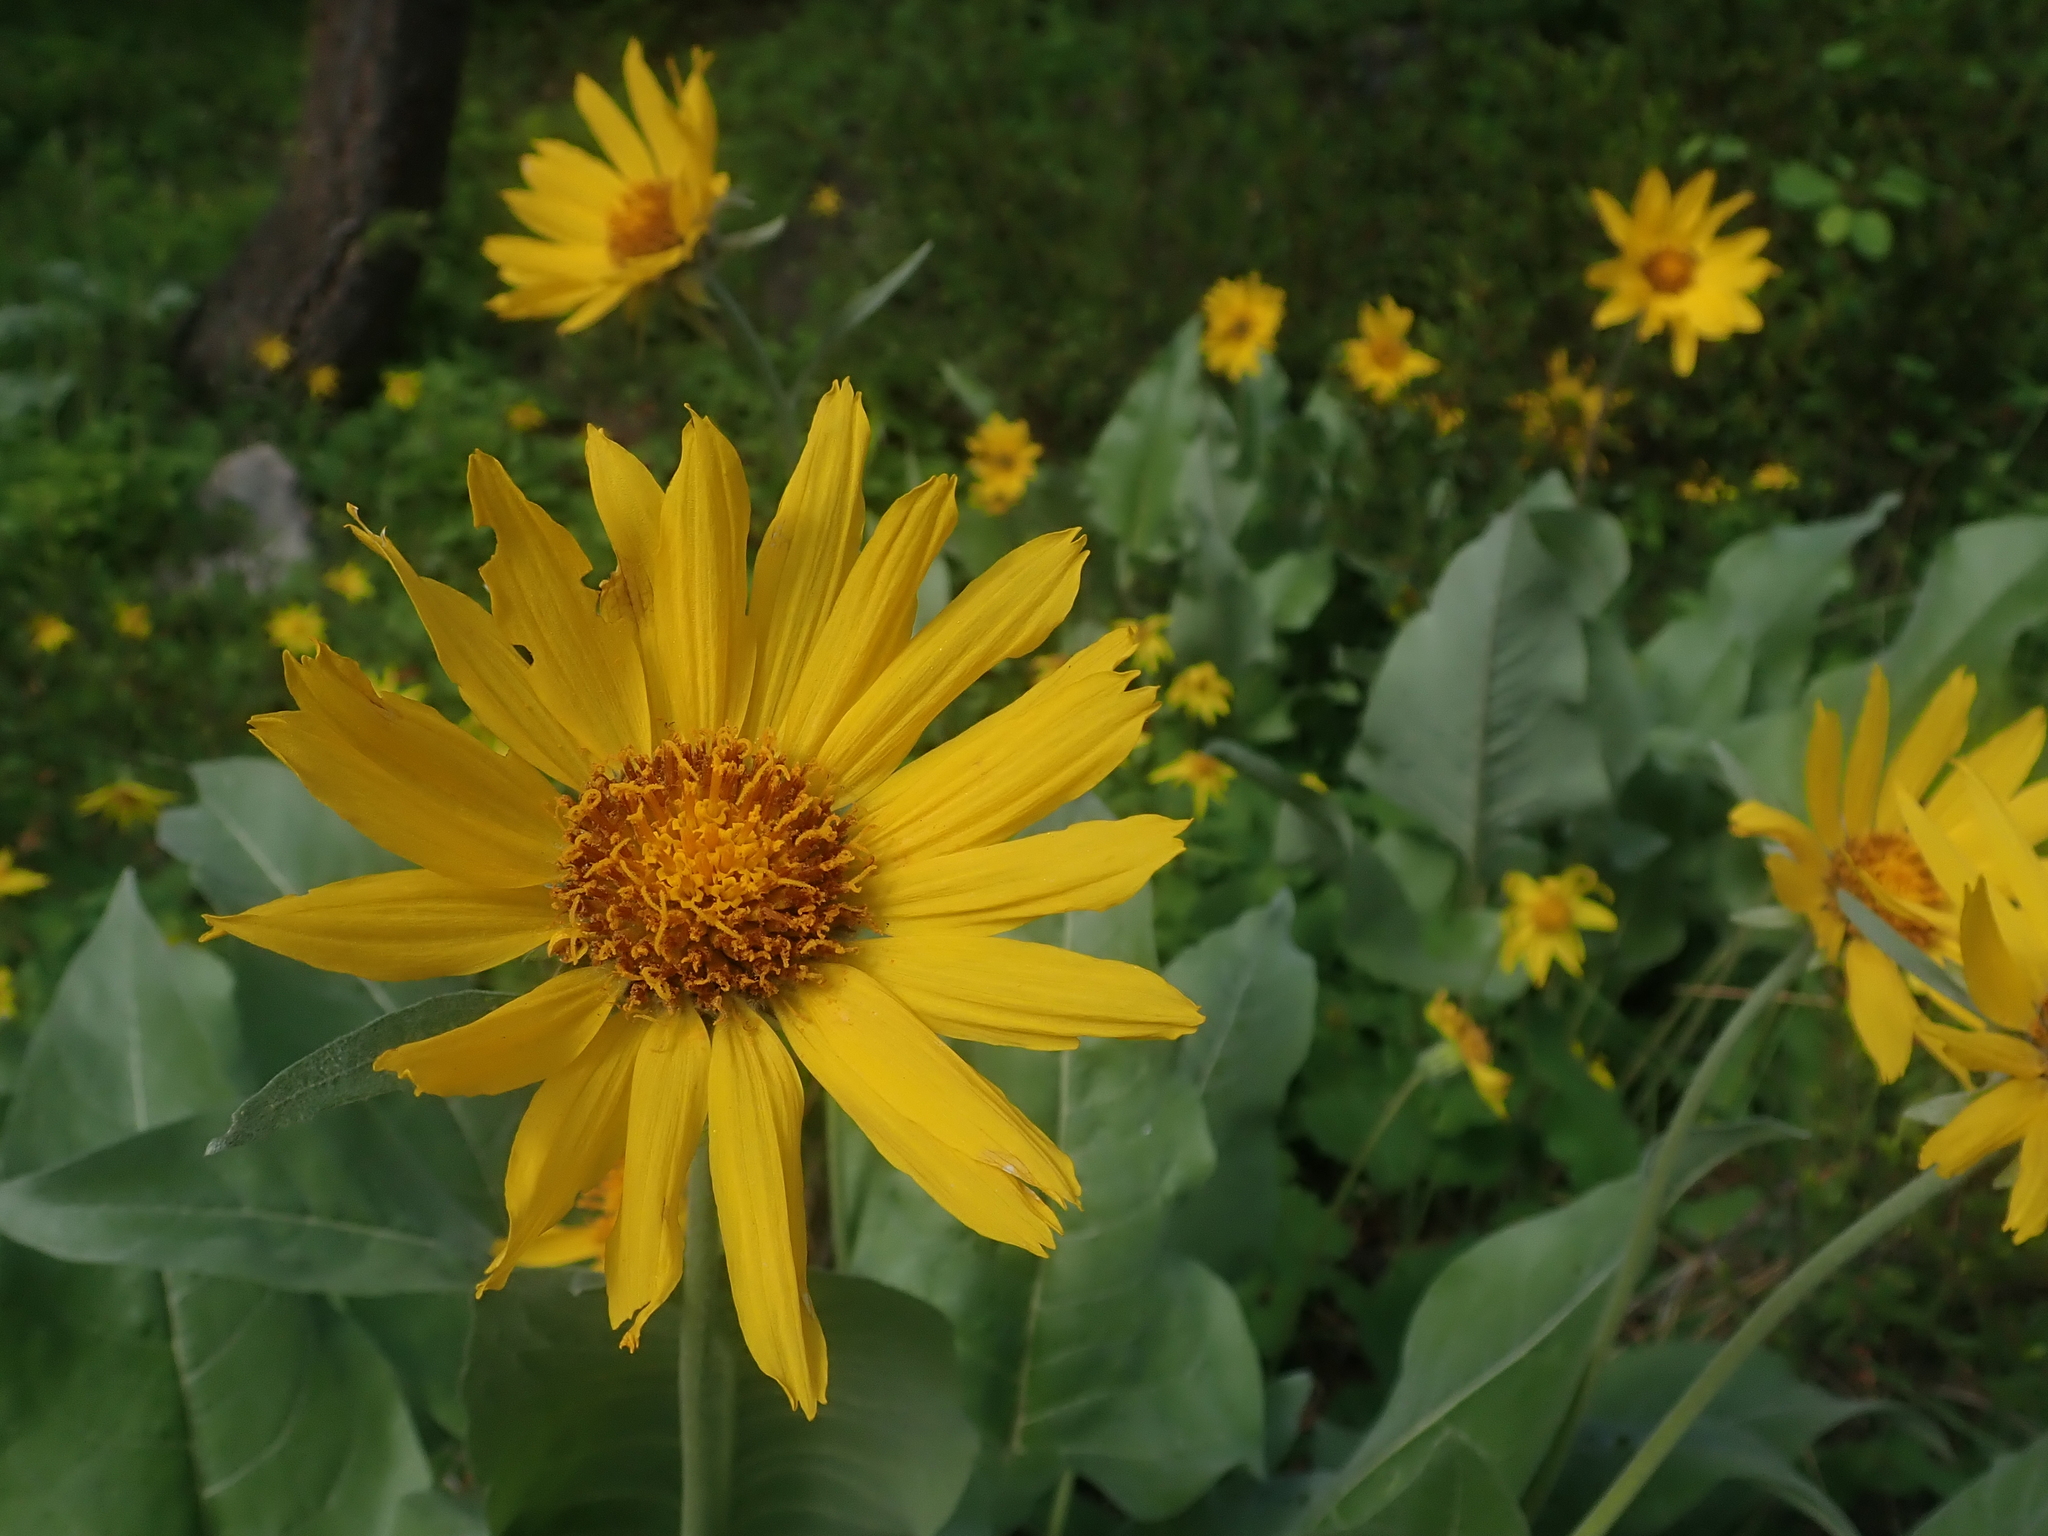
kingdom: Plantae
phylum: Tracheophyta
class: Magnoliopsida
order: Asterales
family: Asteraceae
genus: Wyethia
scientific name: Wyethia sagittata
